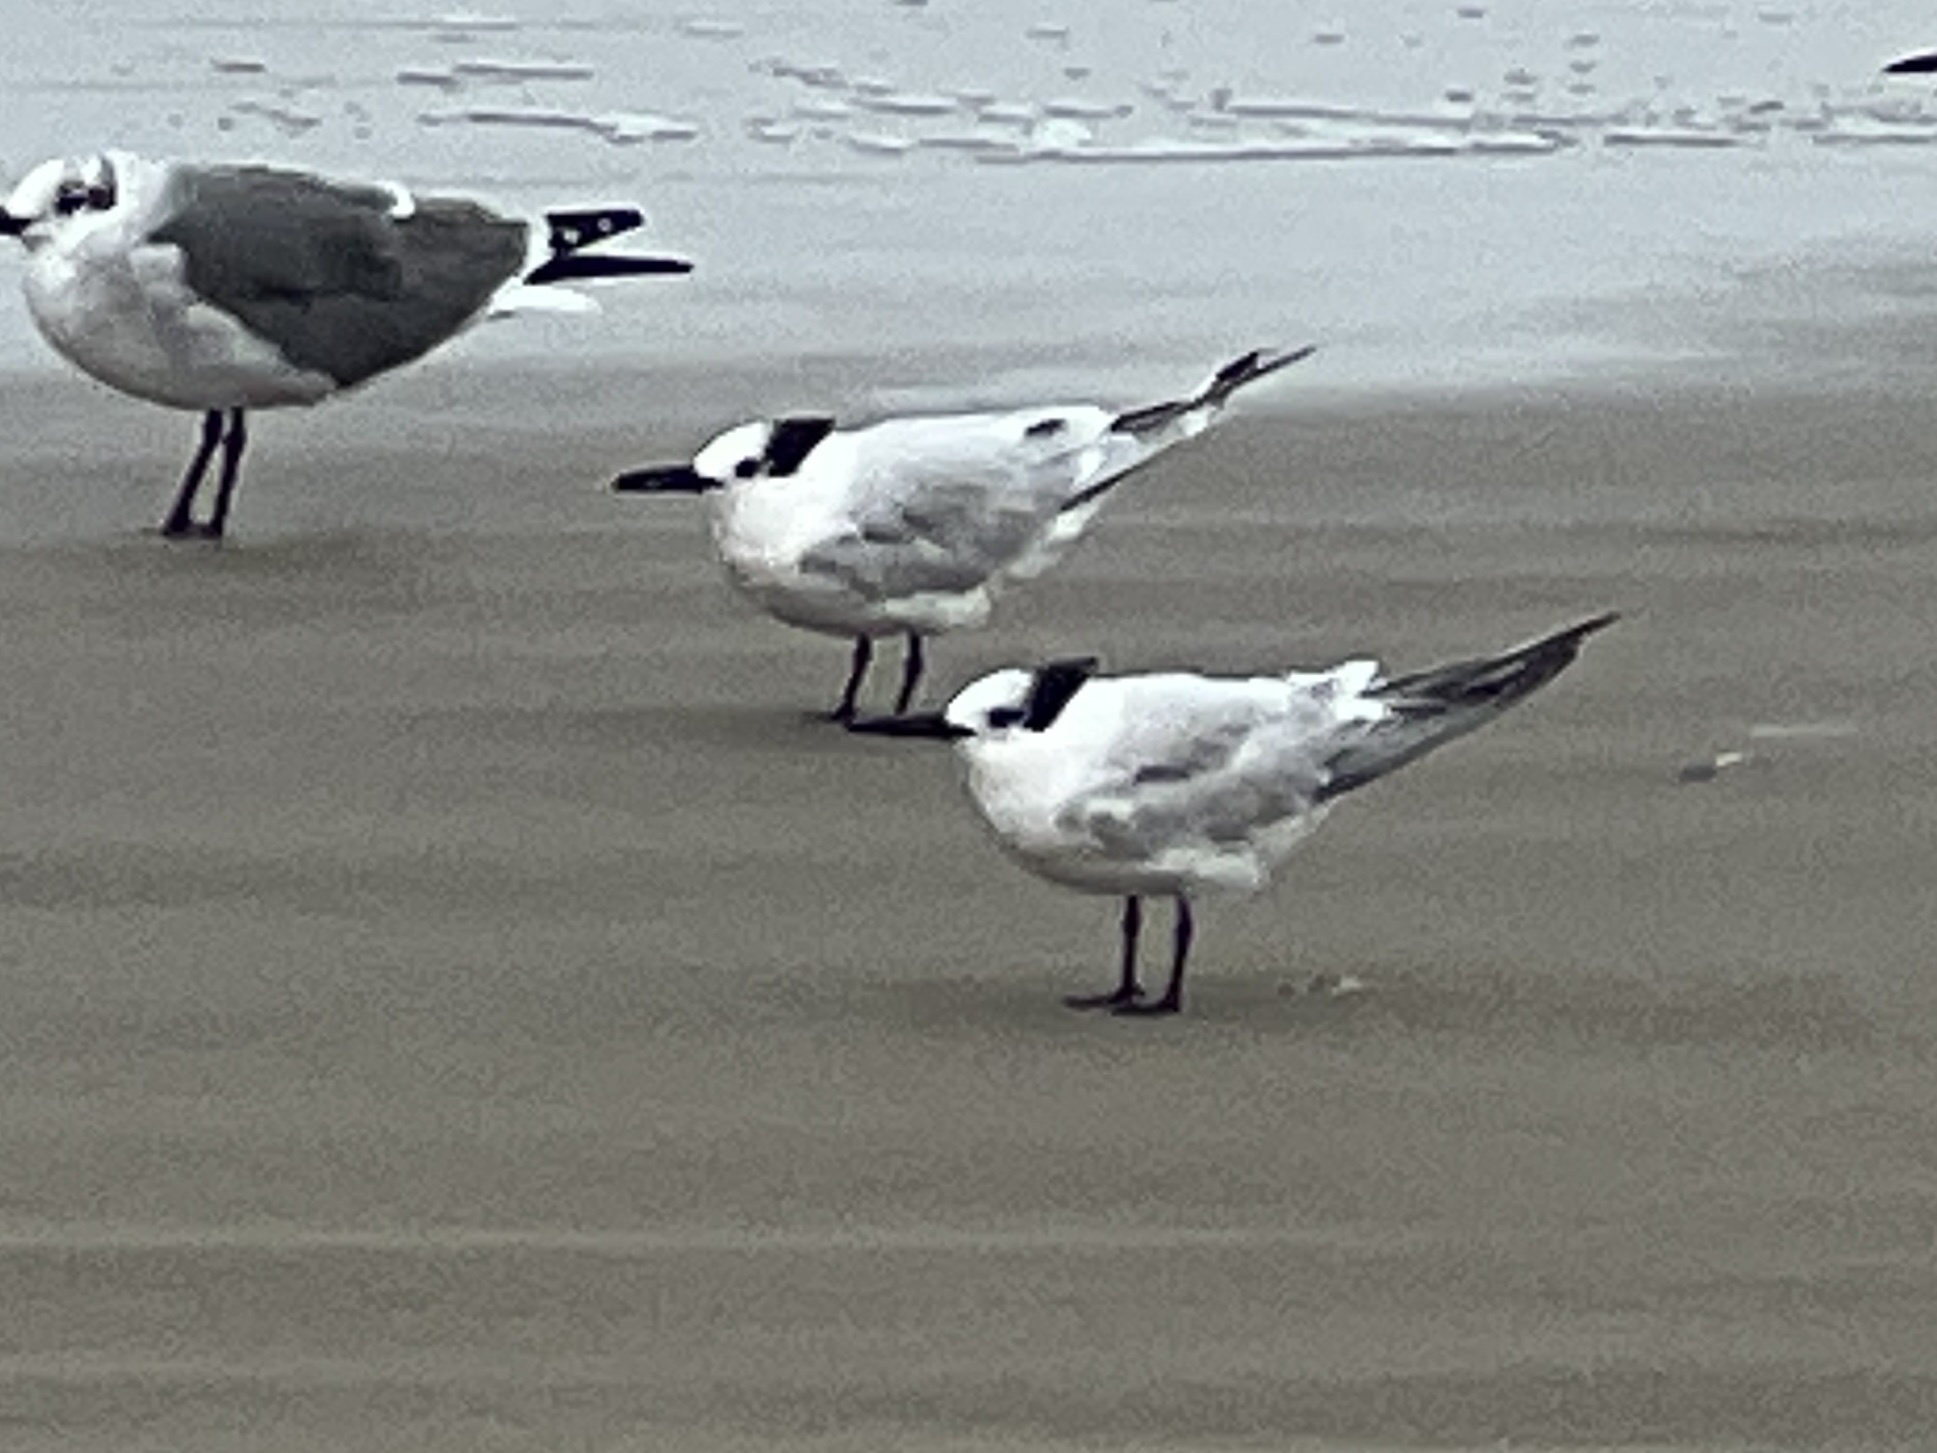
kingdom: Animalia
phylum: Chordata
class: Aves
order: Charadriiformes
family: Laridae
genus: Thalasseus
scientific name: Thalasseus sandvicensis
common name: Sandwich tern
